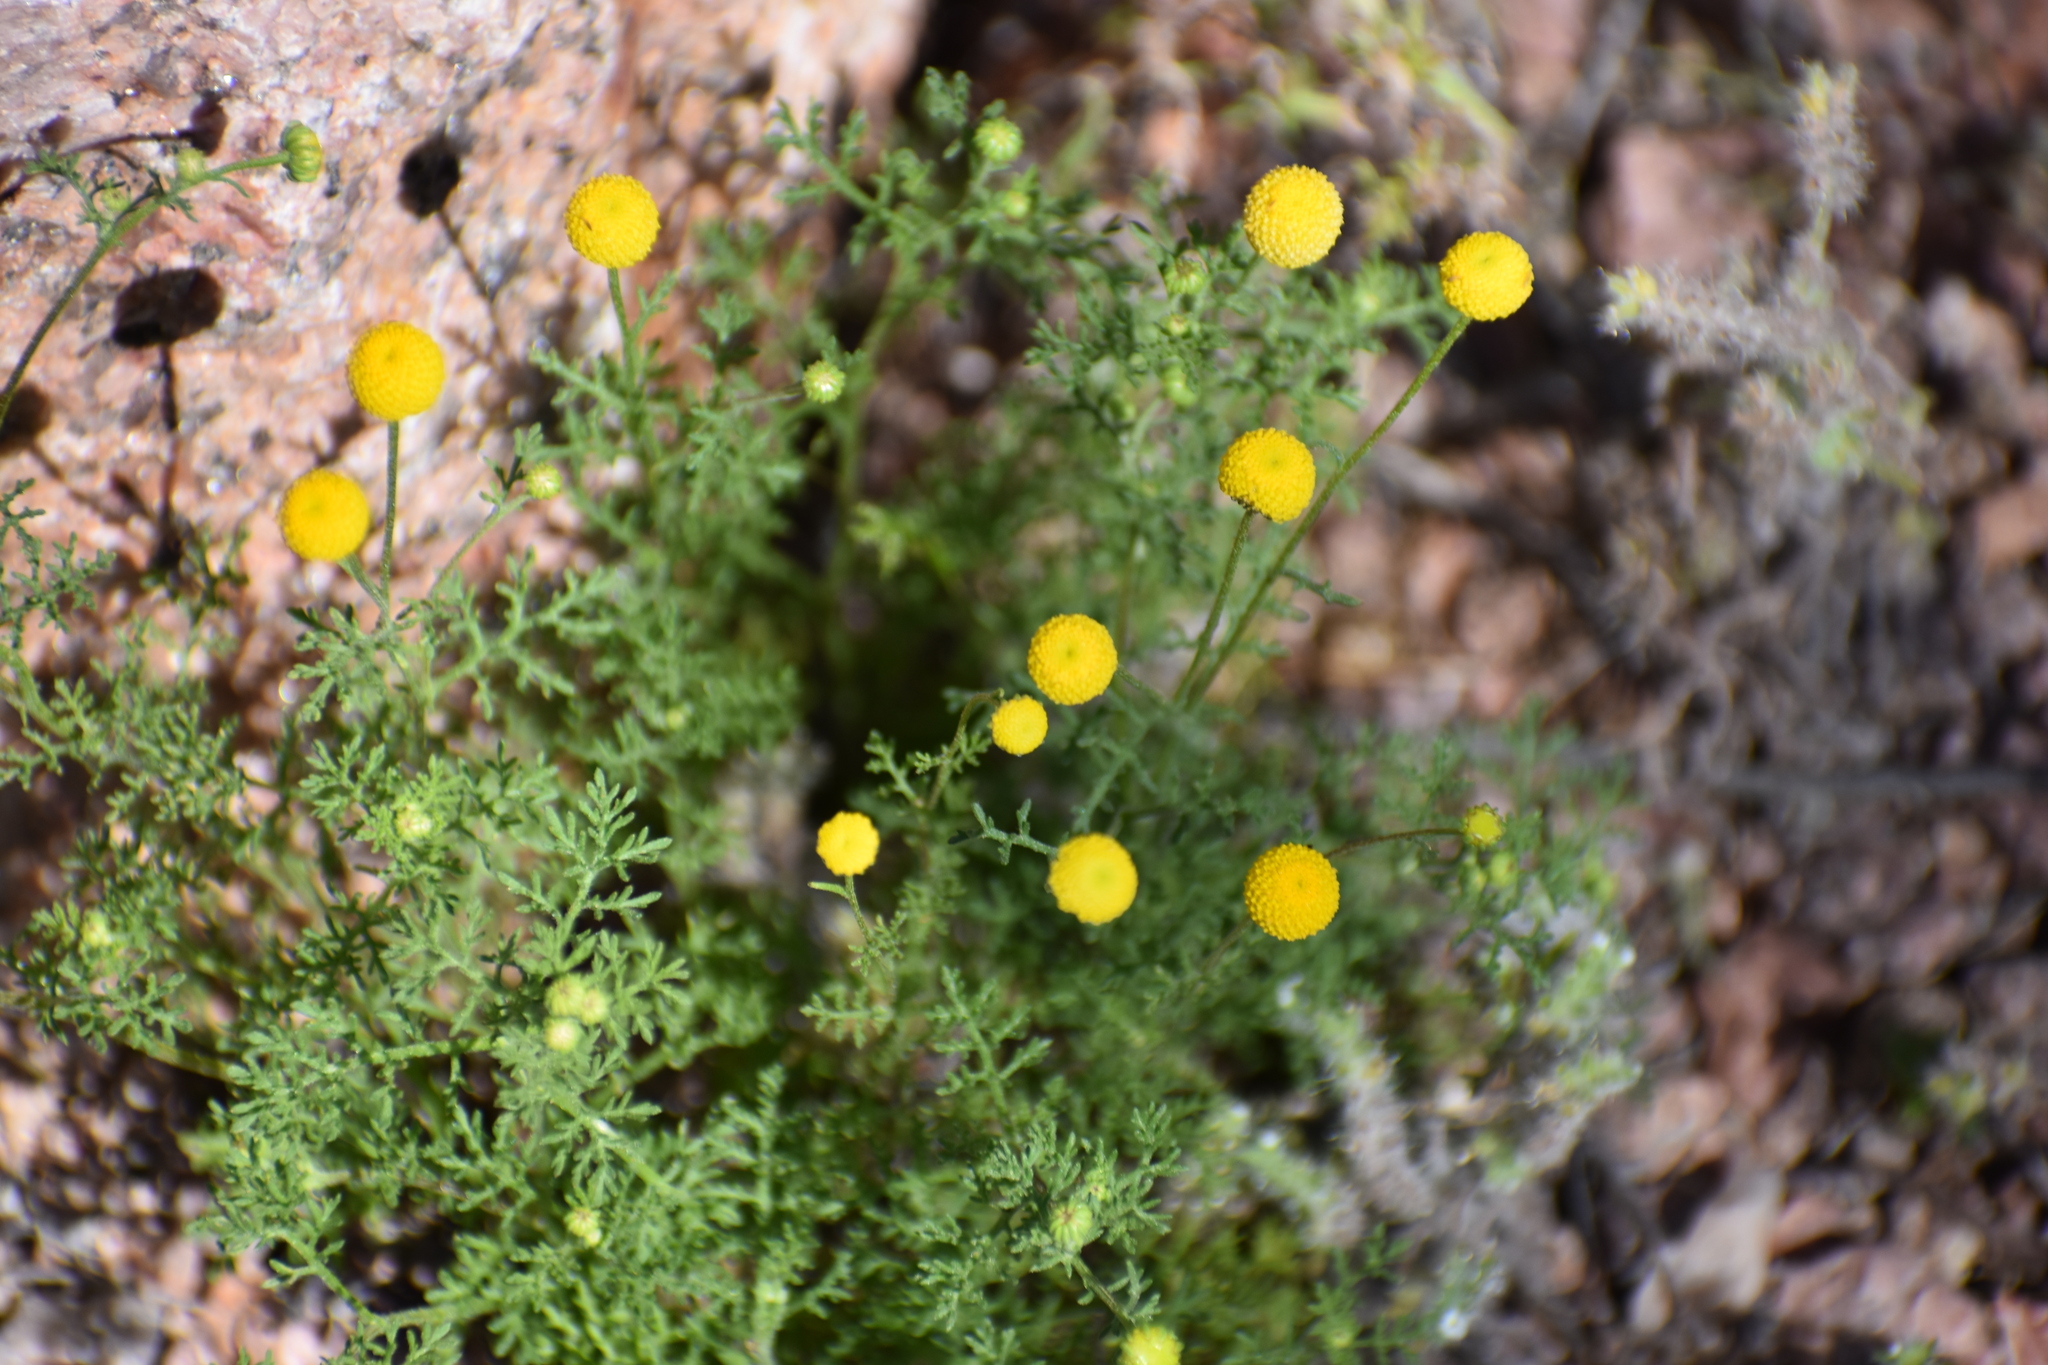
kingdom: Plantae
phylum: Tracheophyta
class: Magnoliopsida
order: Asterales
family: Asteraceae
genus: Oncosiphon
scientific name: Oncosiphon pilulifer
